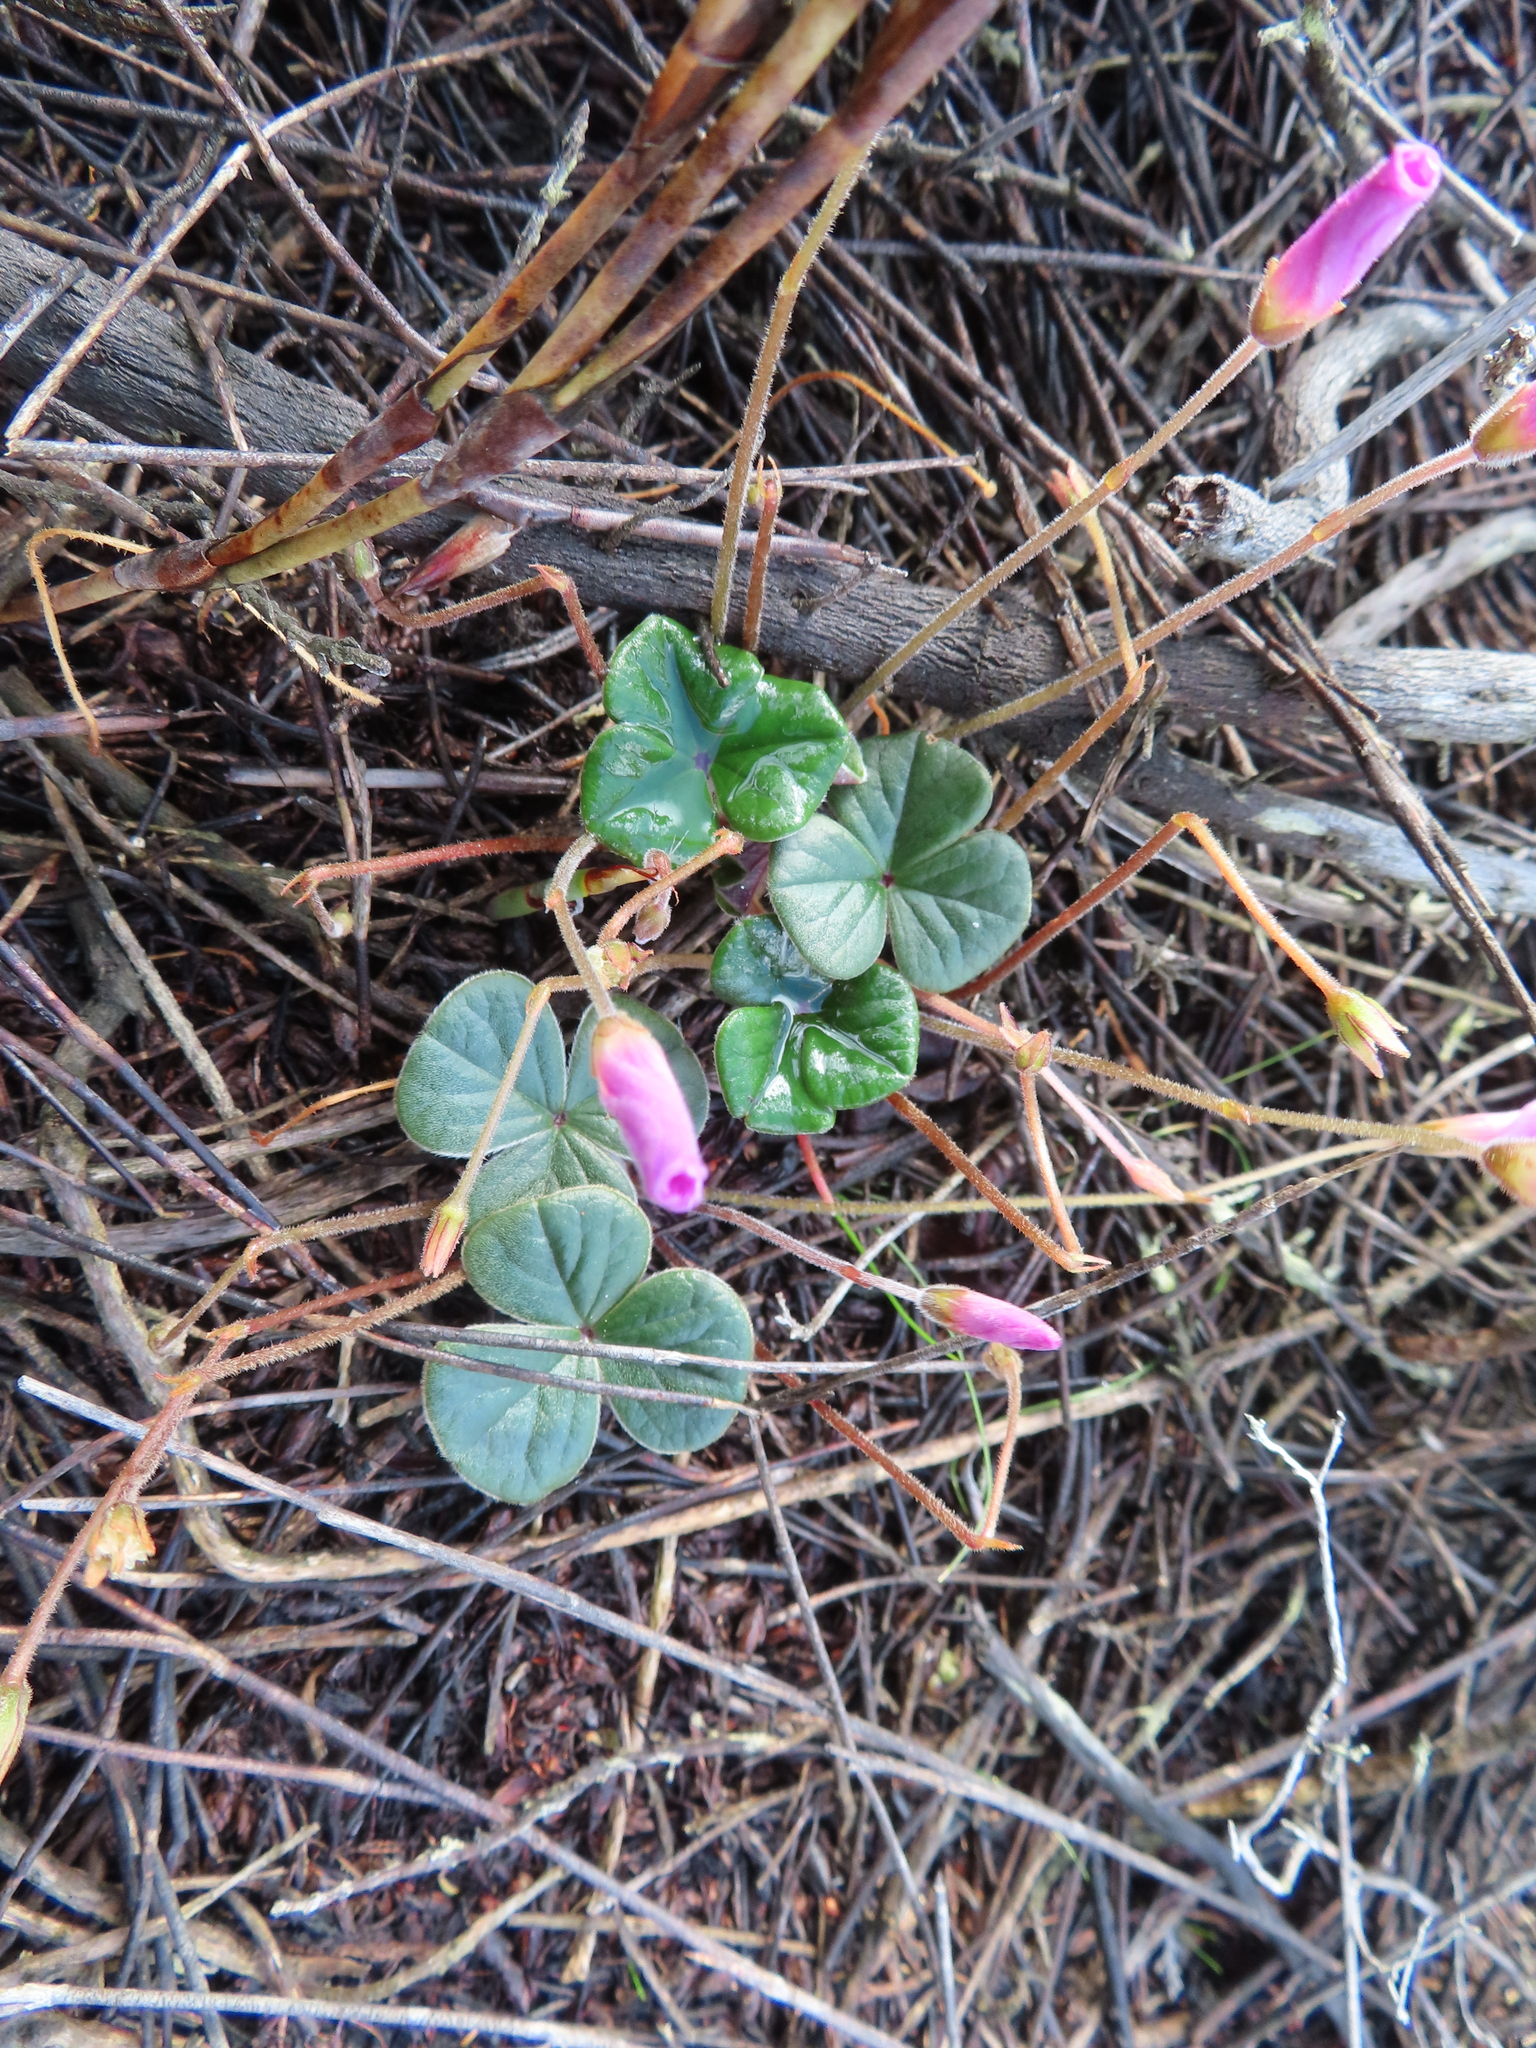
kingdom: Plantae
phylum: Tracheophyta
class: Magnoliopsida
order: Oxalidales
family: Oxalidaceae
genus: Oxalis
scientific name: Oxalis truncatula
